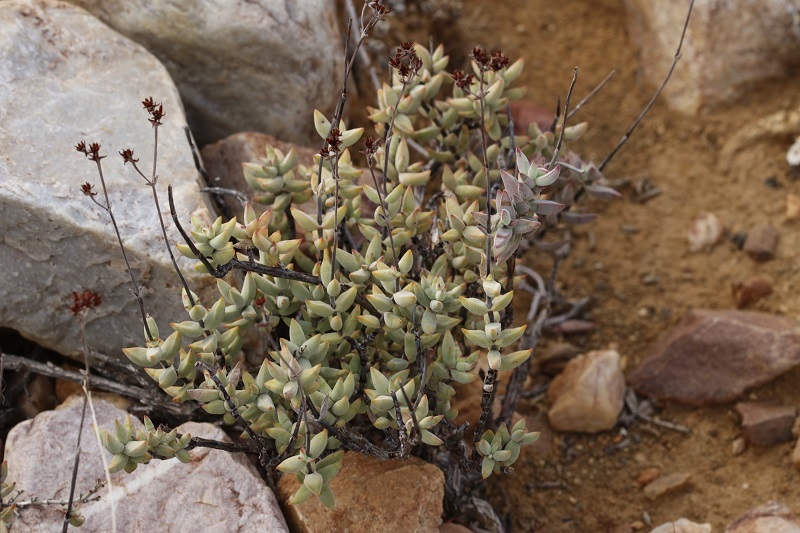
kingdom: Plantae
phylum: Tracheophyta
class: Magnoliopsida
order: Saxifragales
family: Crassulaceae
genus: Crassula
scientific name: Crassula subaphylla
